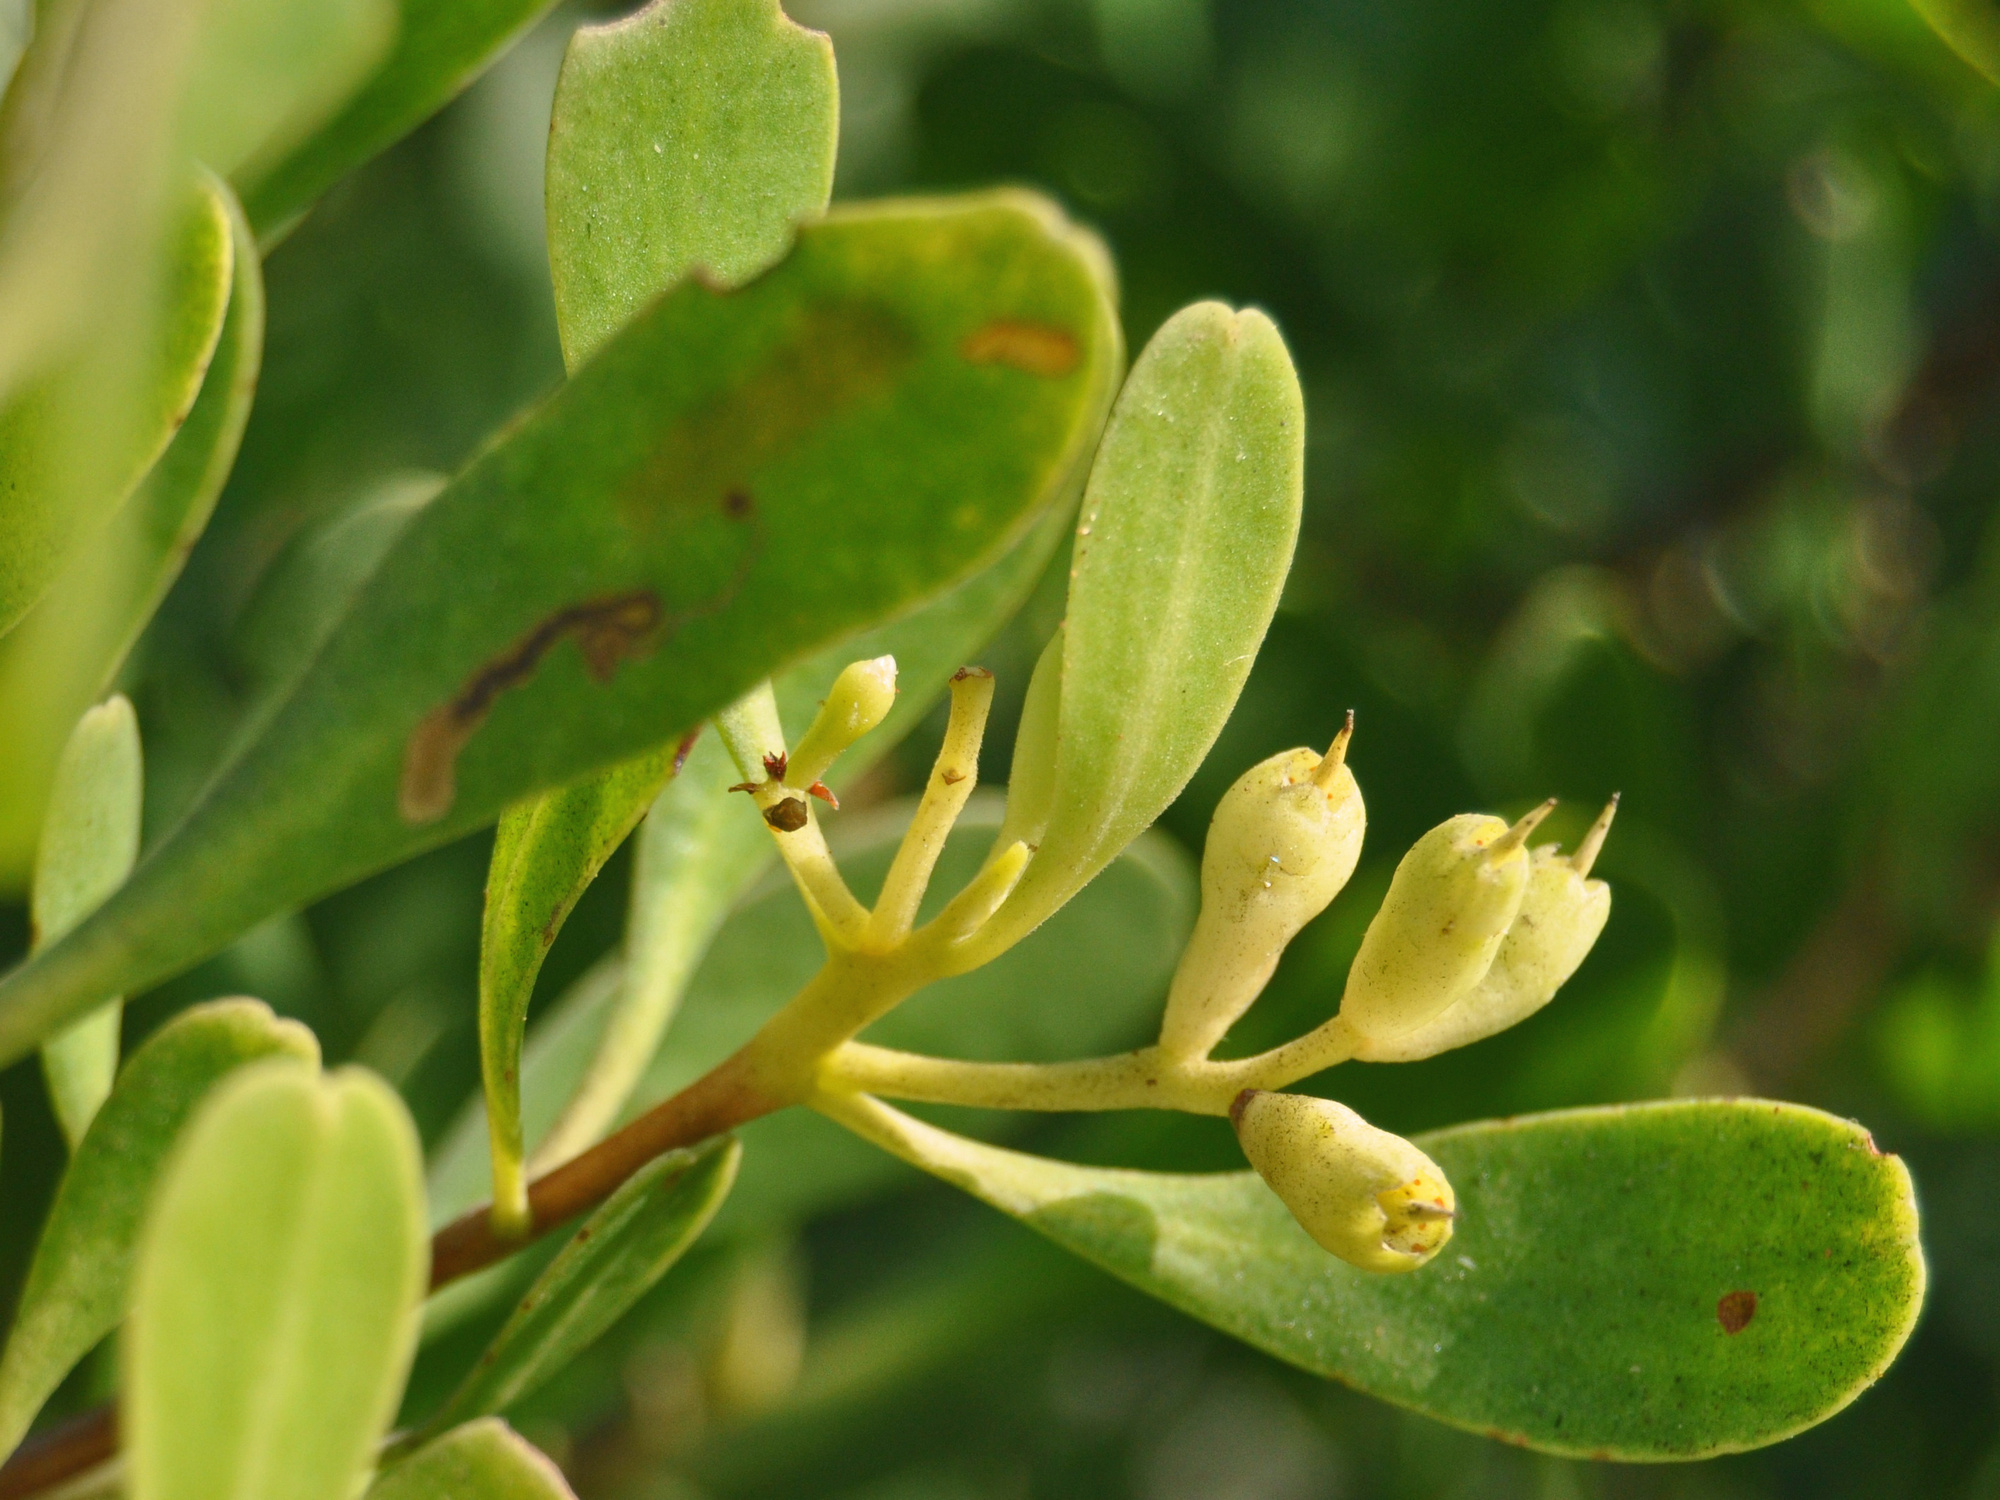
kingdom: Plantae
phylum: Tracheophyta
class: Magnoliopsida
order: Myrtales
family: Combretaceae
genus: Lumnitzera
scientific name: Lumnitzera racemosa
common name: White-flowered black mangrove
